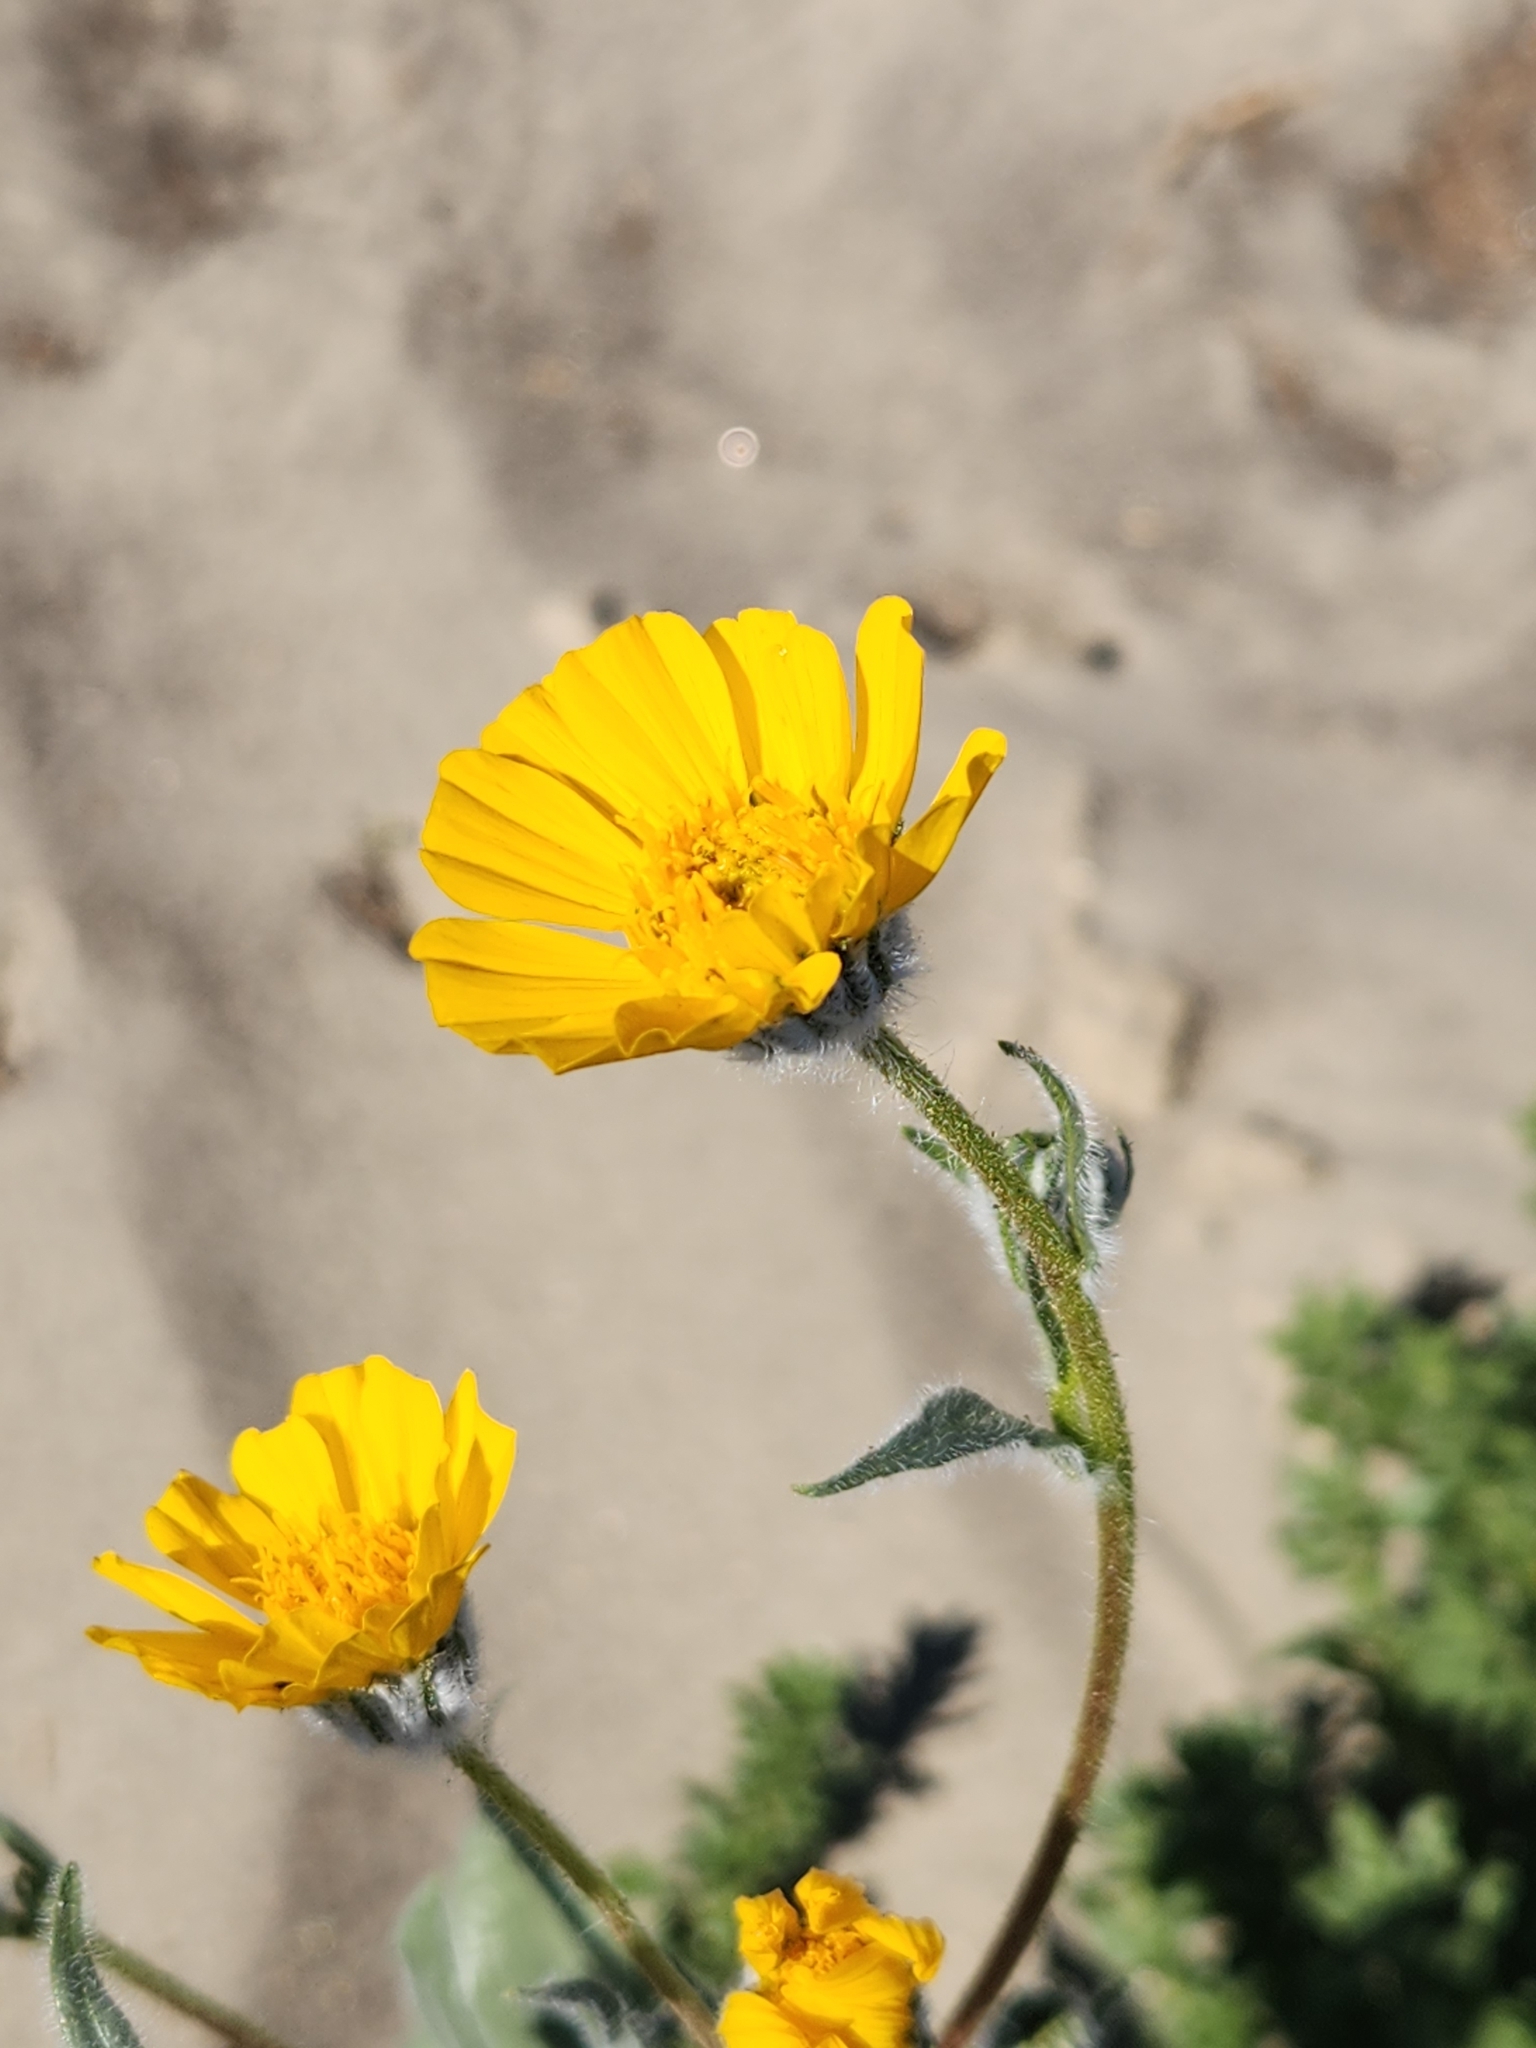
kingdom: Plantae
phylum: Tracheophyta
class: Magnoliopsida
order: Asterales
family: Asteraceae
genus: Geraea
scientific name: Geraea canescens
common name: Desert-gold
